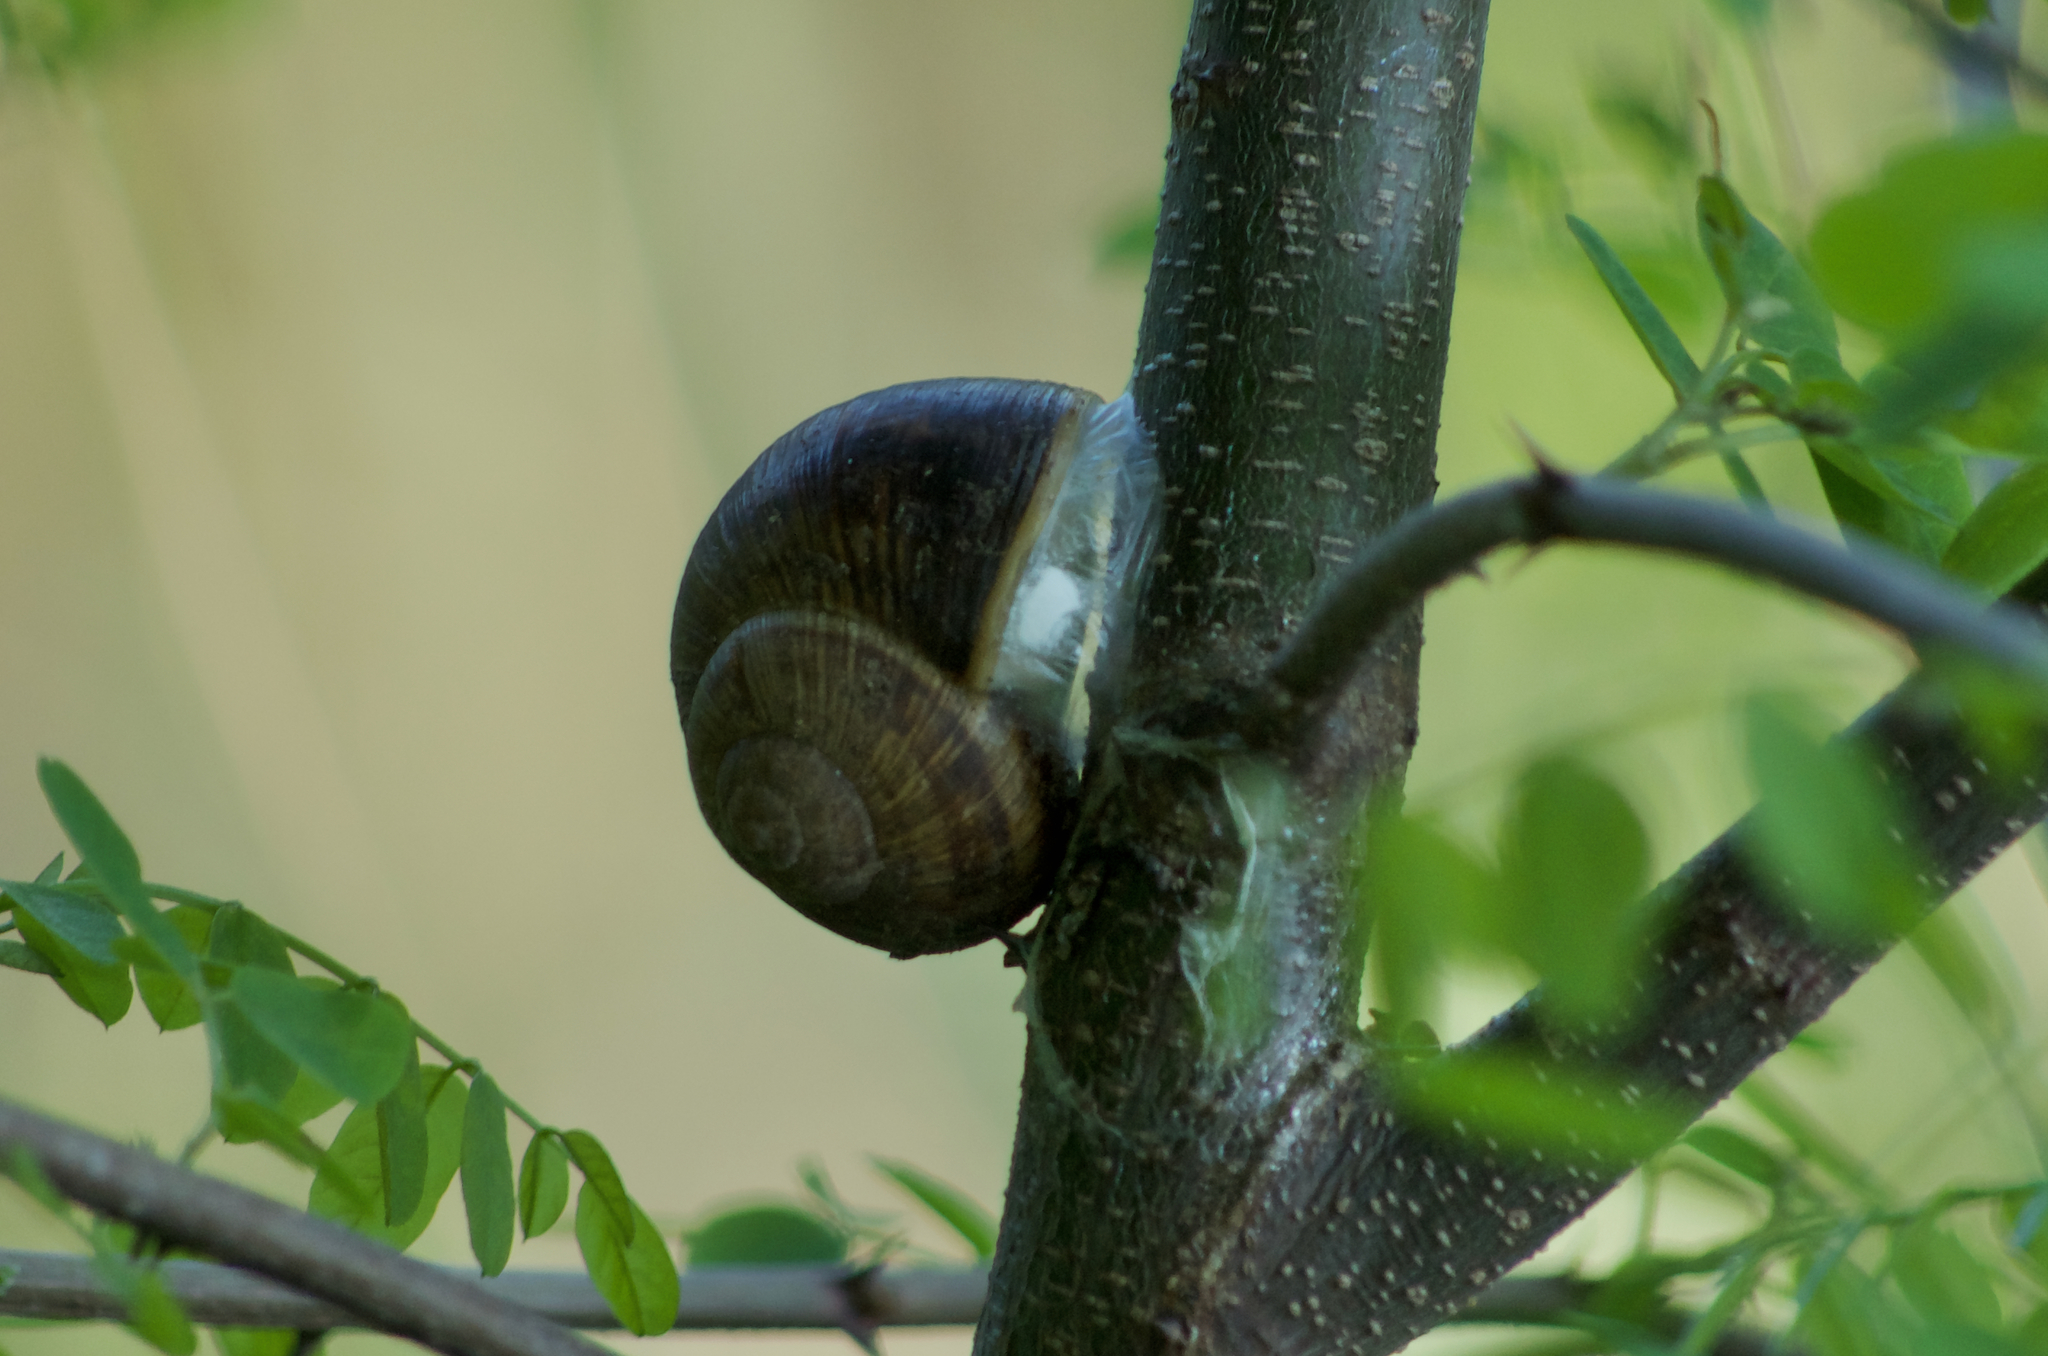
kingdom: Animalia
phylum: Mollusca
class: Gastropoda
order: Stylommatophora
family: Helicidae
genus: Helix
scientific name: Helix pomatia
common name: Roman snail
